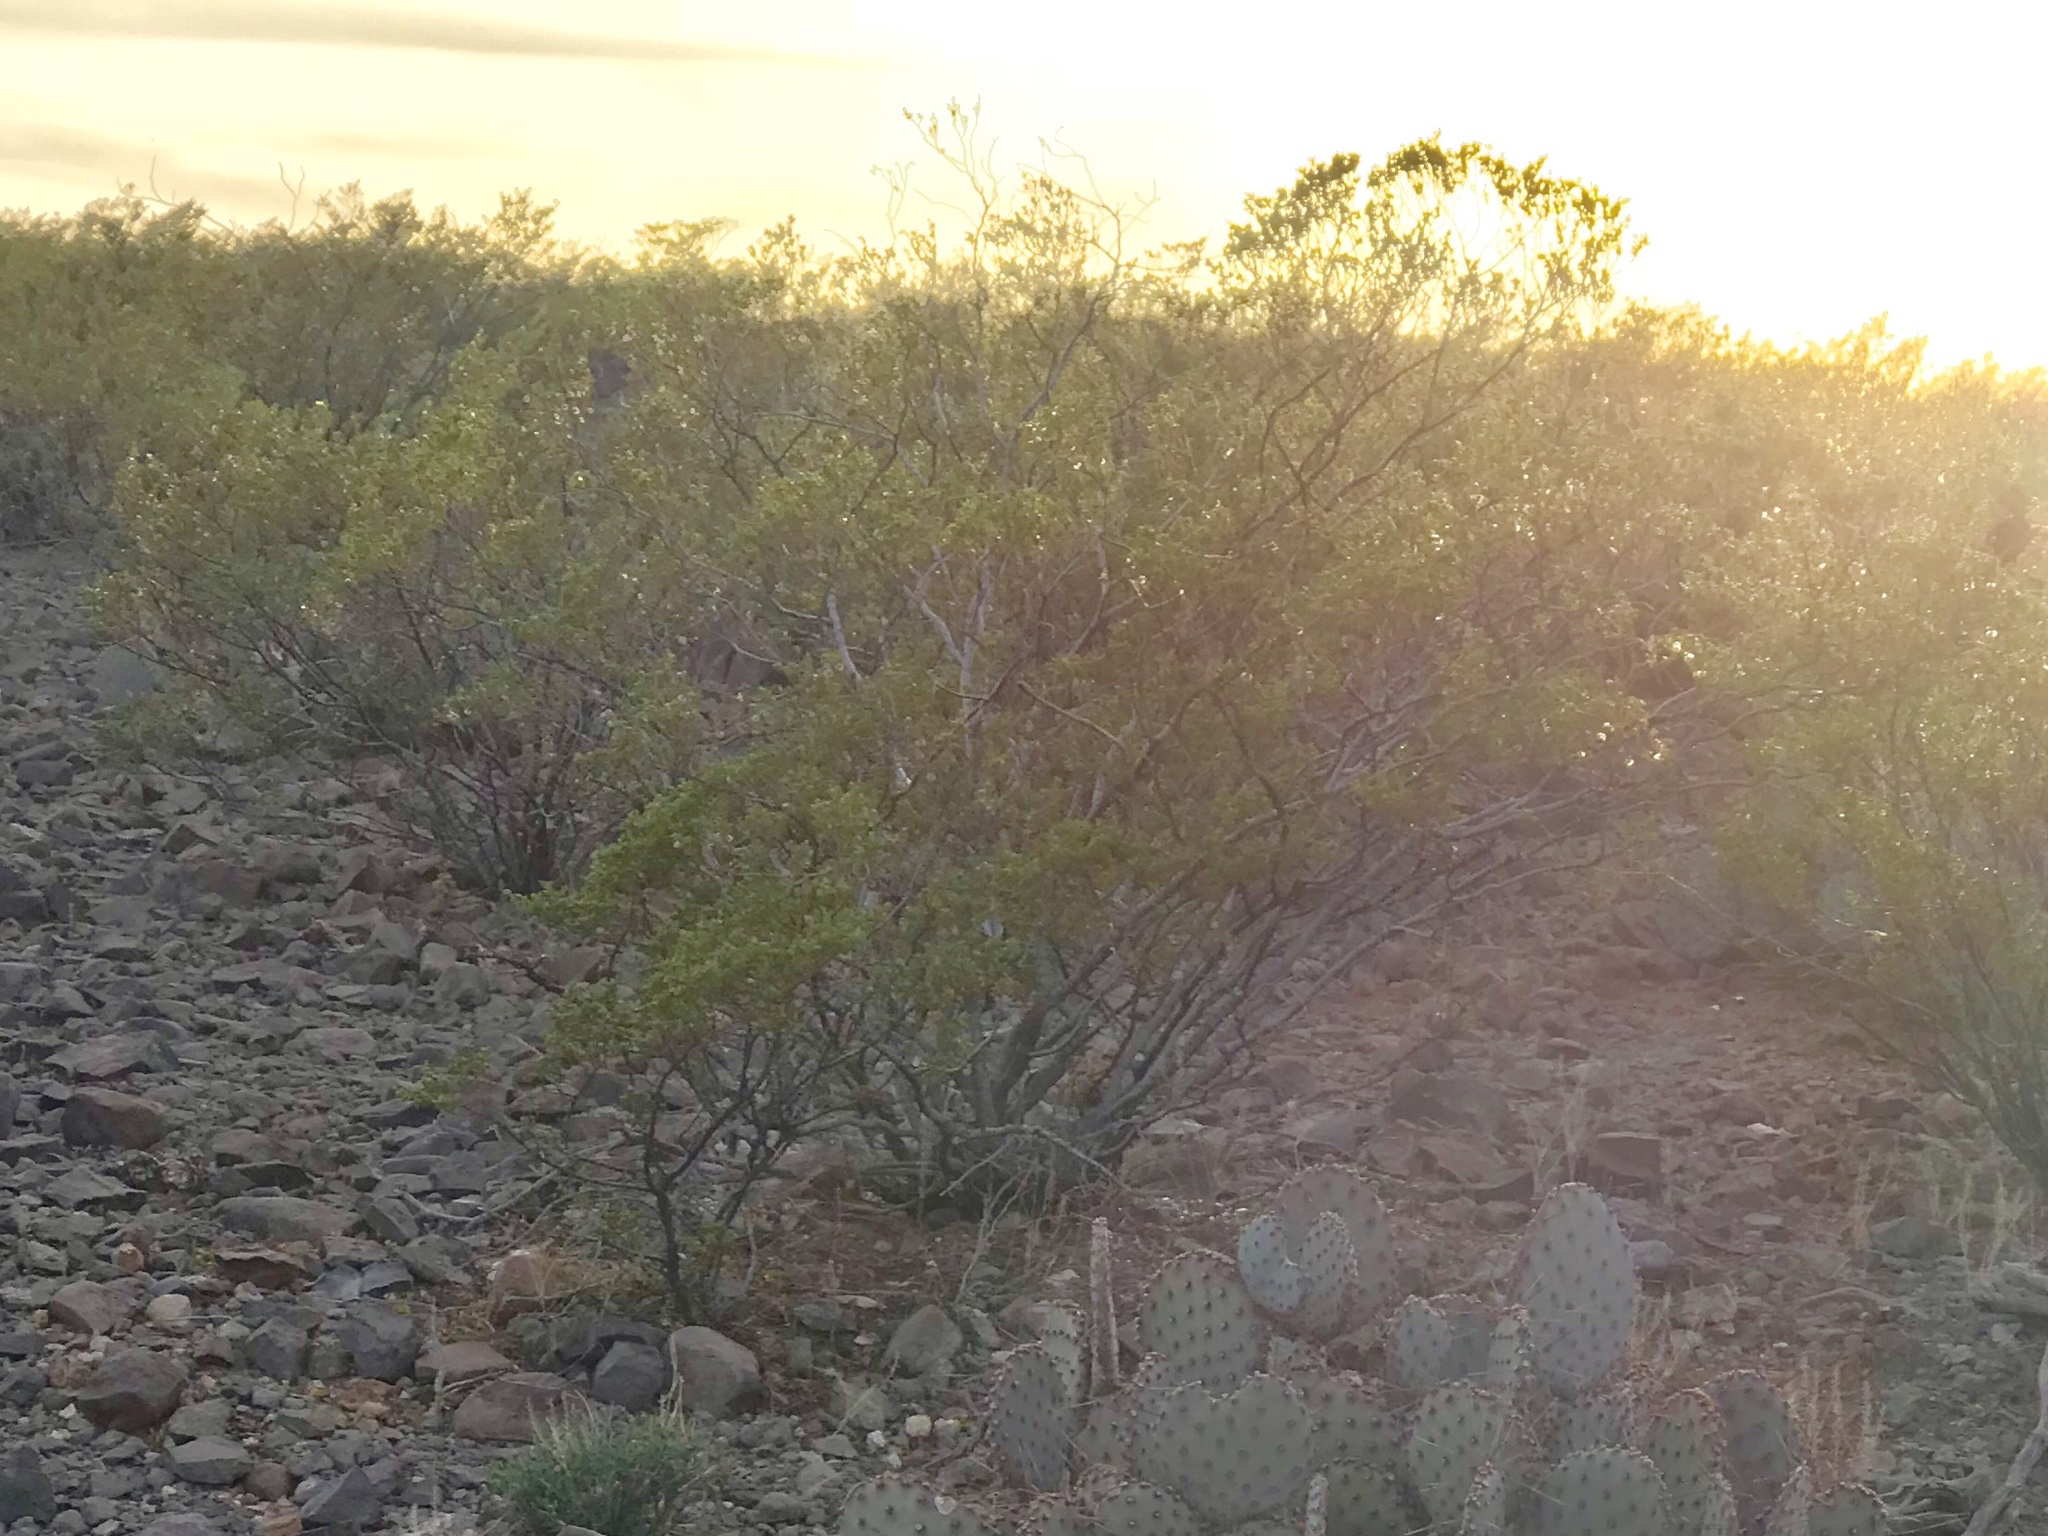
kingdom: Plantae
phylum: Tracheophyta
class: Magnoliopsida
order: Zygophyllales
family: Zygophyllaceae
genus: Larrea
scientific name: Larrea tridentata
